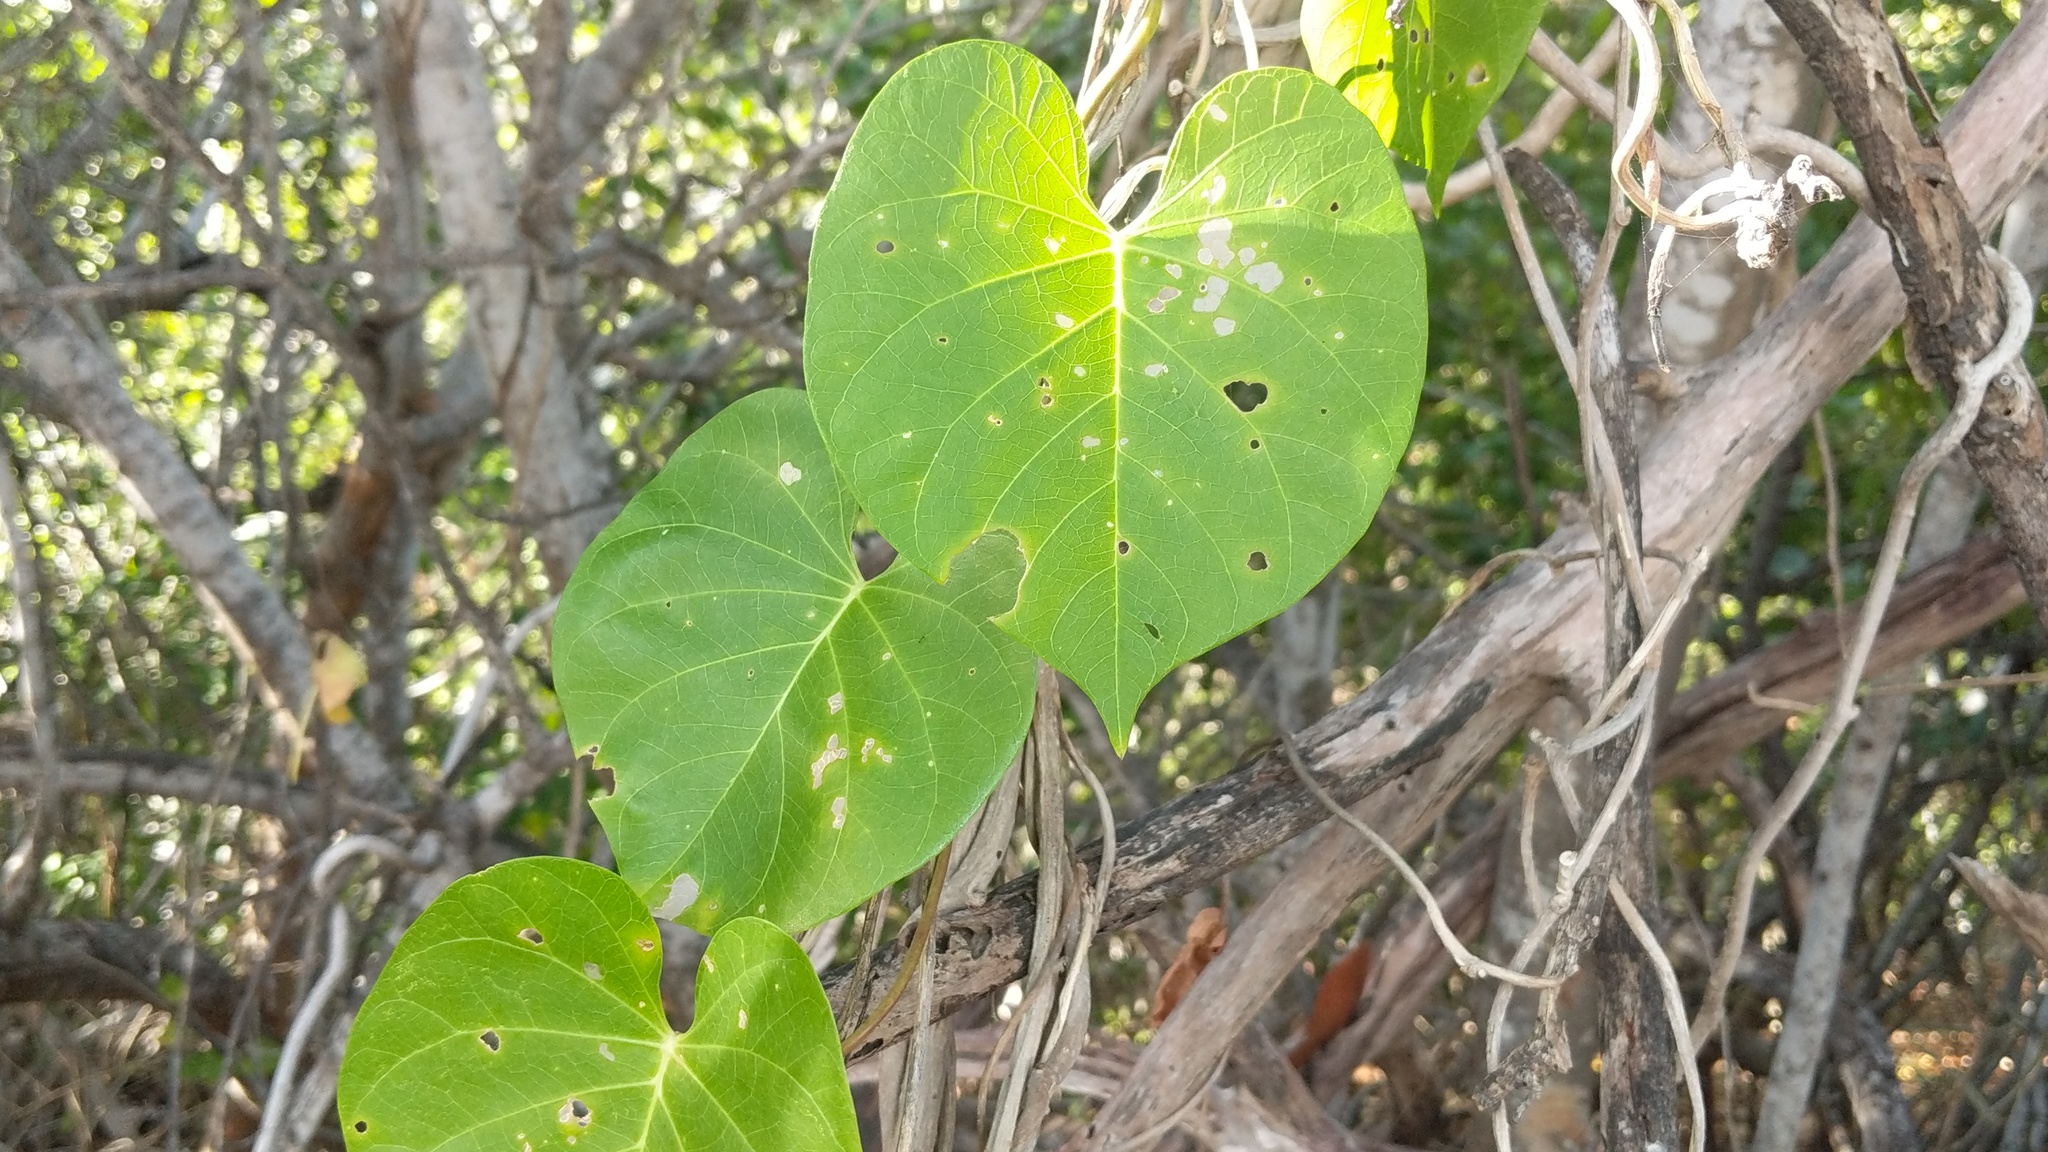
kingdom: Plantae
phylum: Tracheophyta
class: Magnoliopsida
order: Solanales
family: Convolvulaceae
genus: Ipomoea
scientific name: Ipomoea violacea
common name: Beach moonflower
